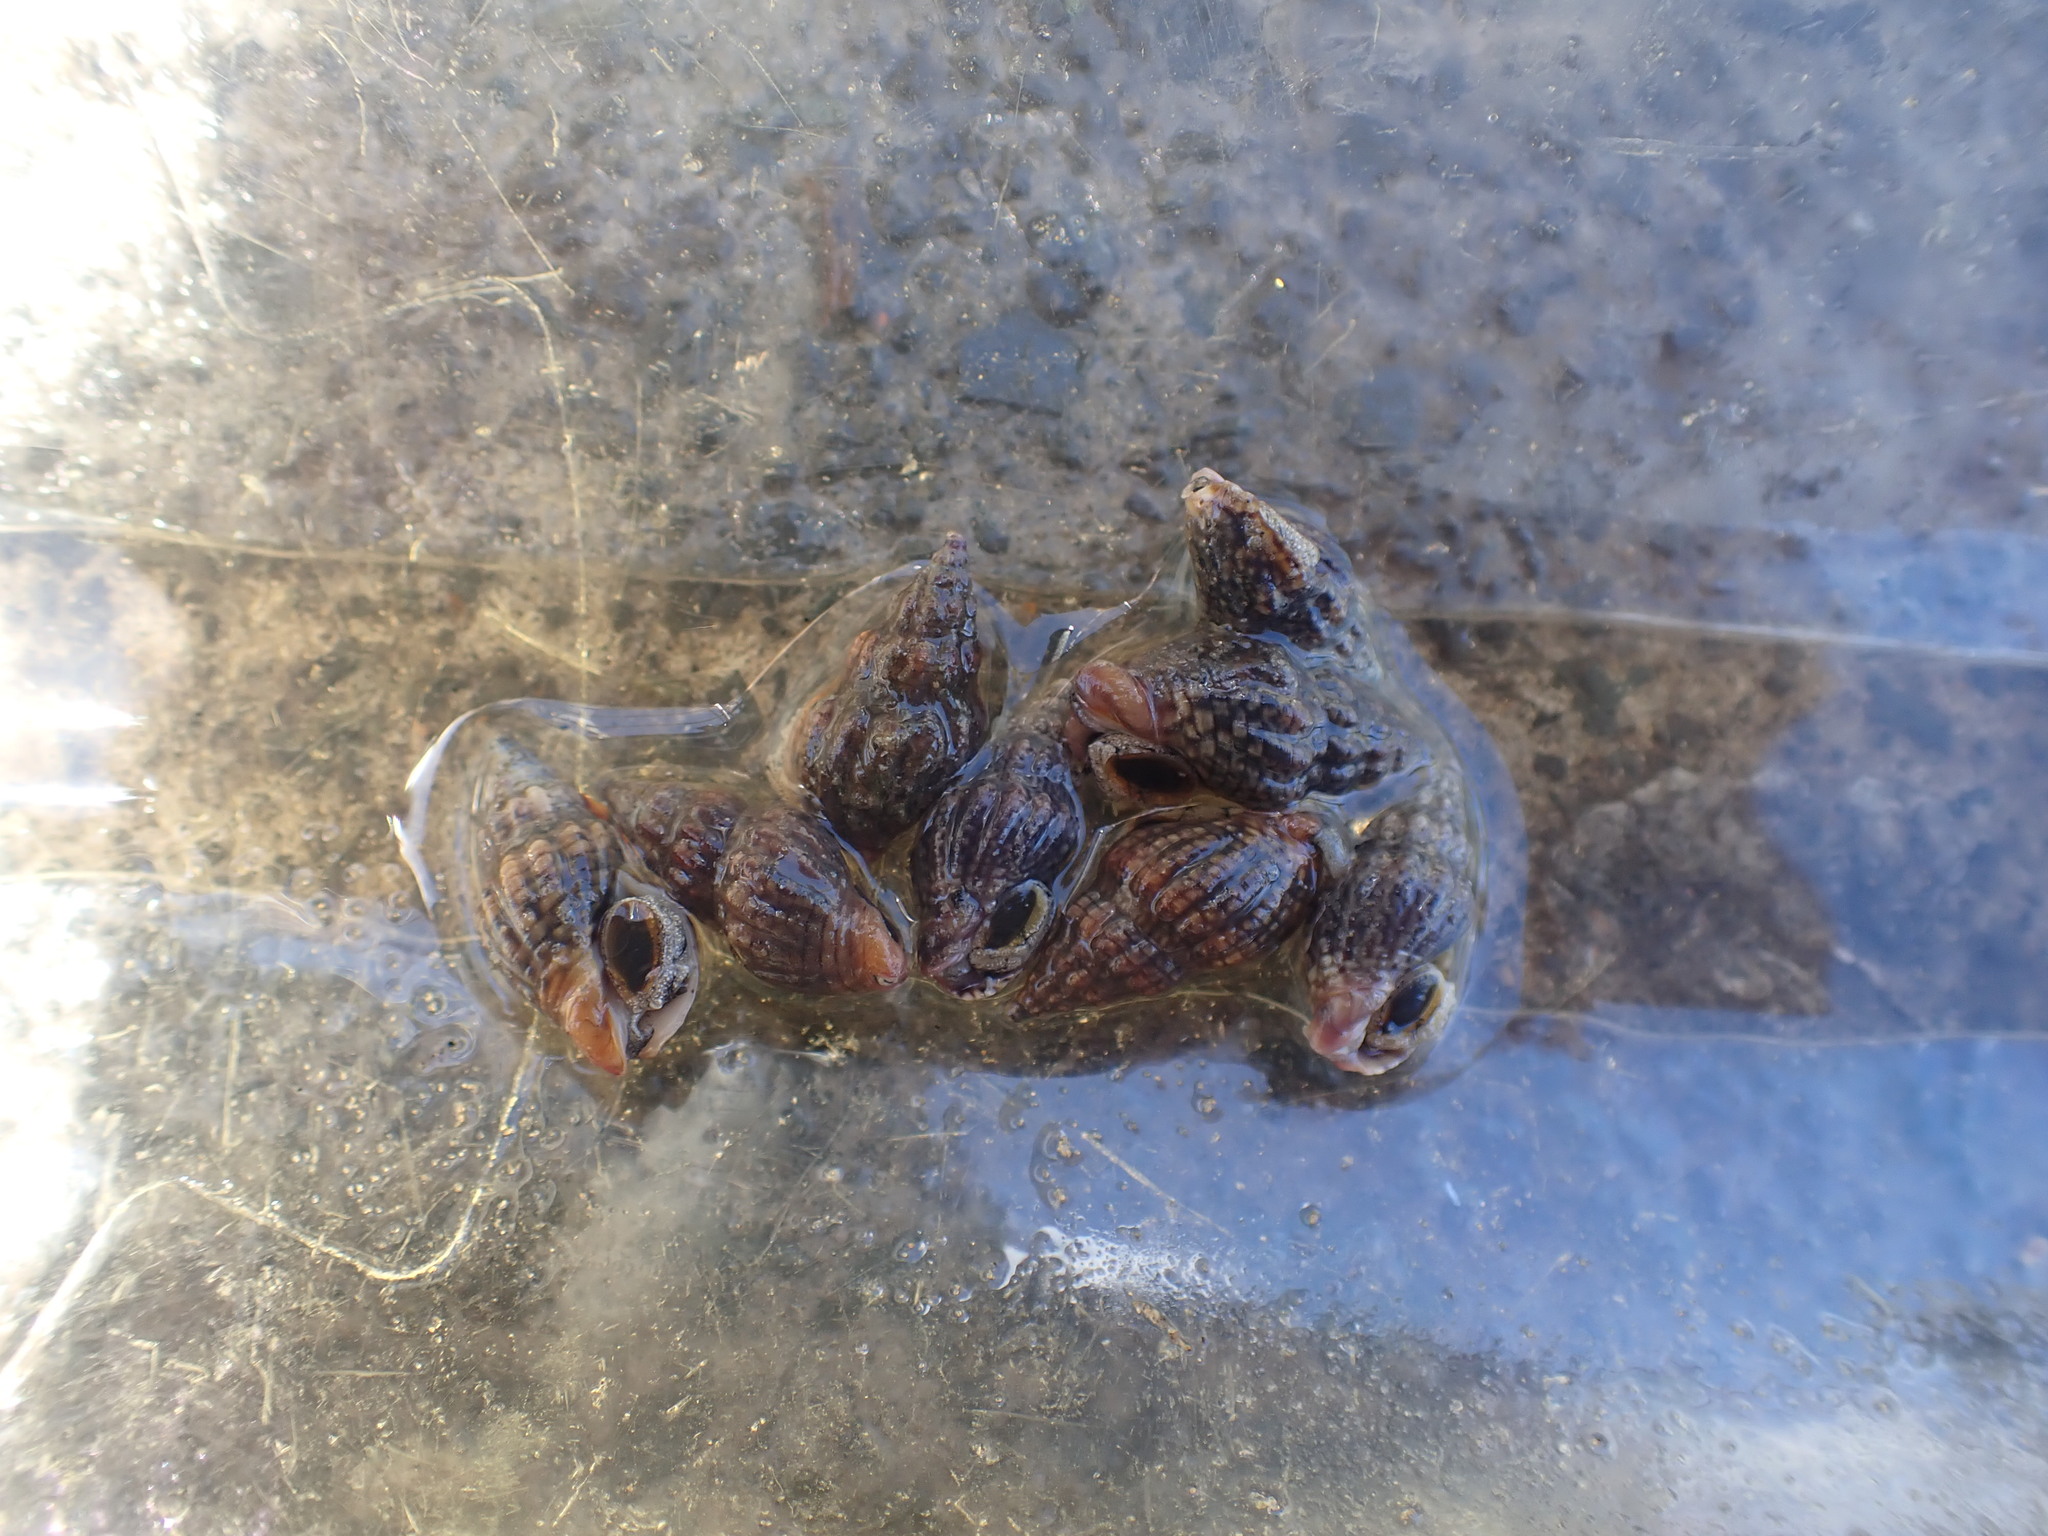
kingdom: Animalia
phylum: Mollusca
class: Gastropoda
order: Neogastropoda
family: Cominellidae
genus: Cominella
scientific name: Cominella quoyana
